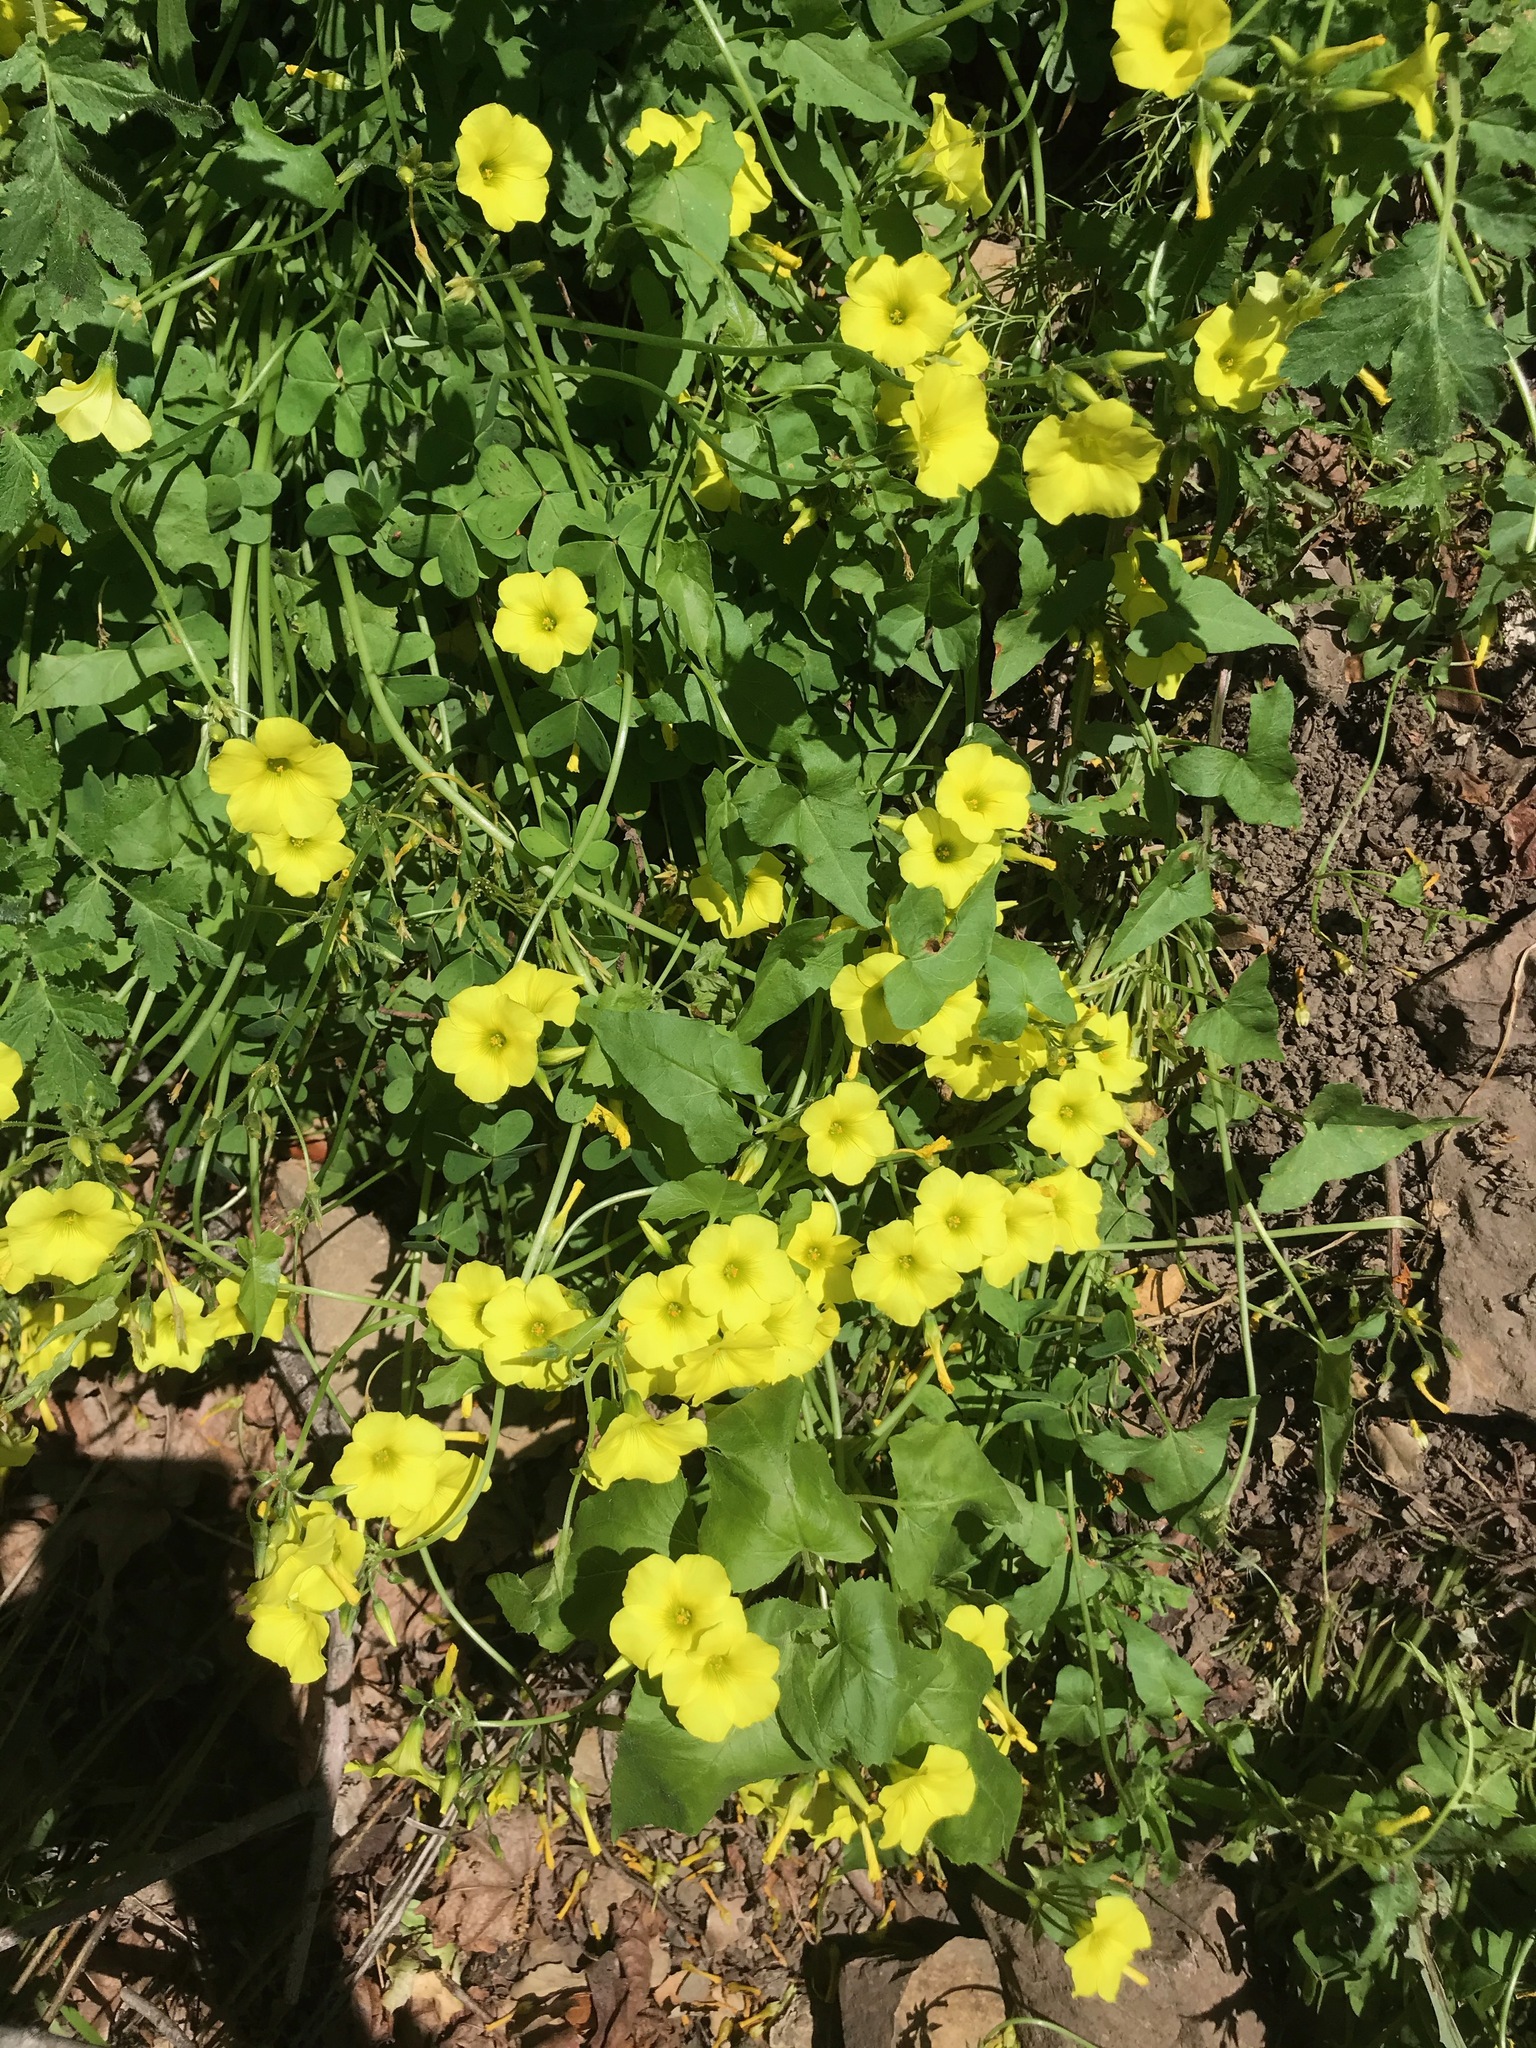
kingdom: Plantae
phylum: Tracheophyta
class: Magnoliopsida
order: Oxalidales
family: Oxalidaceae
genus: Oxalis
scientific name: Oxalis pes-caprae
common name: Bermuda-buttercup
